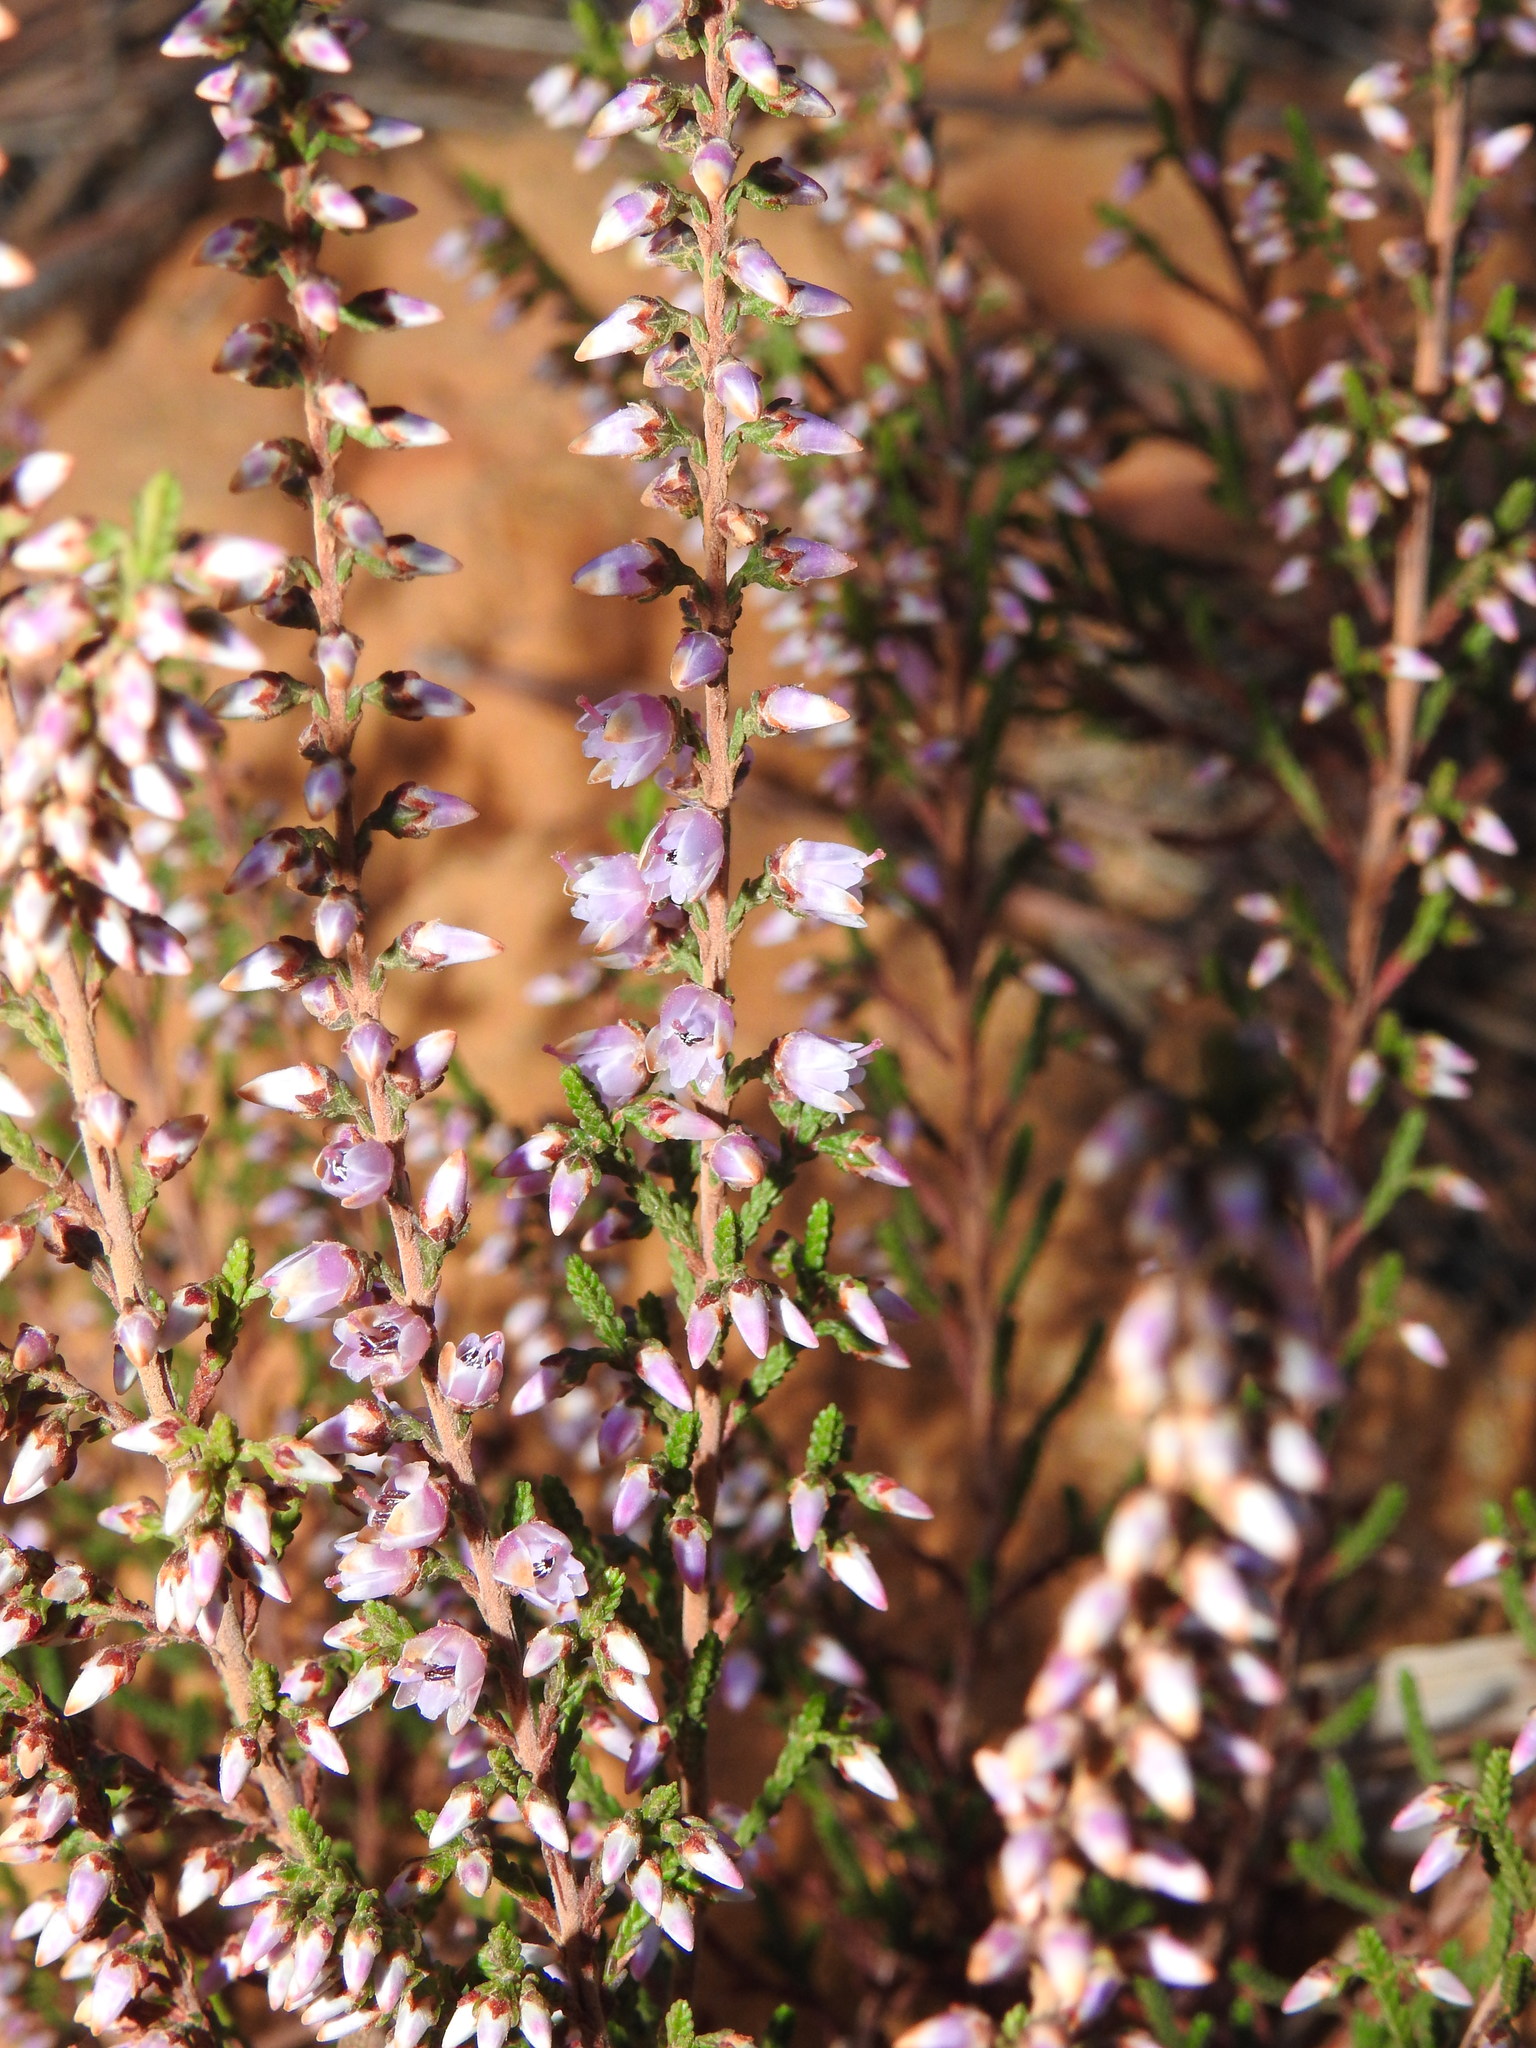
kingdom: Plantae
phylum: Tracheophyta
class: Magnoliopsida
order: Ericales
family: Ericaceae
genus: Calluna
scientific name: Calluna vulgaris
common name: Heather
